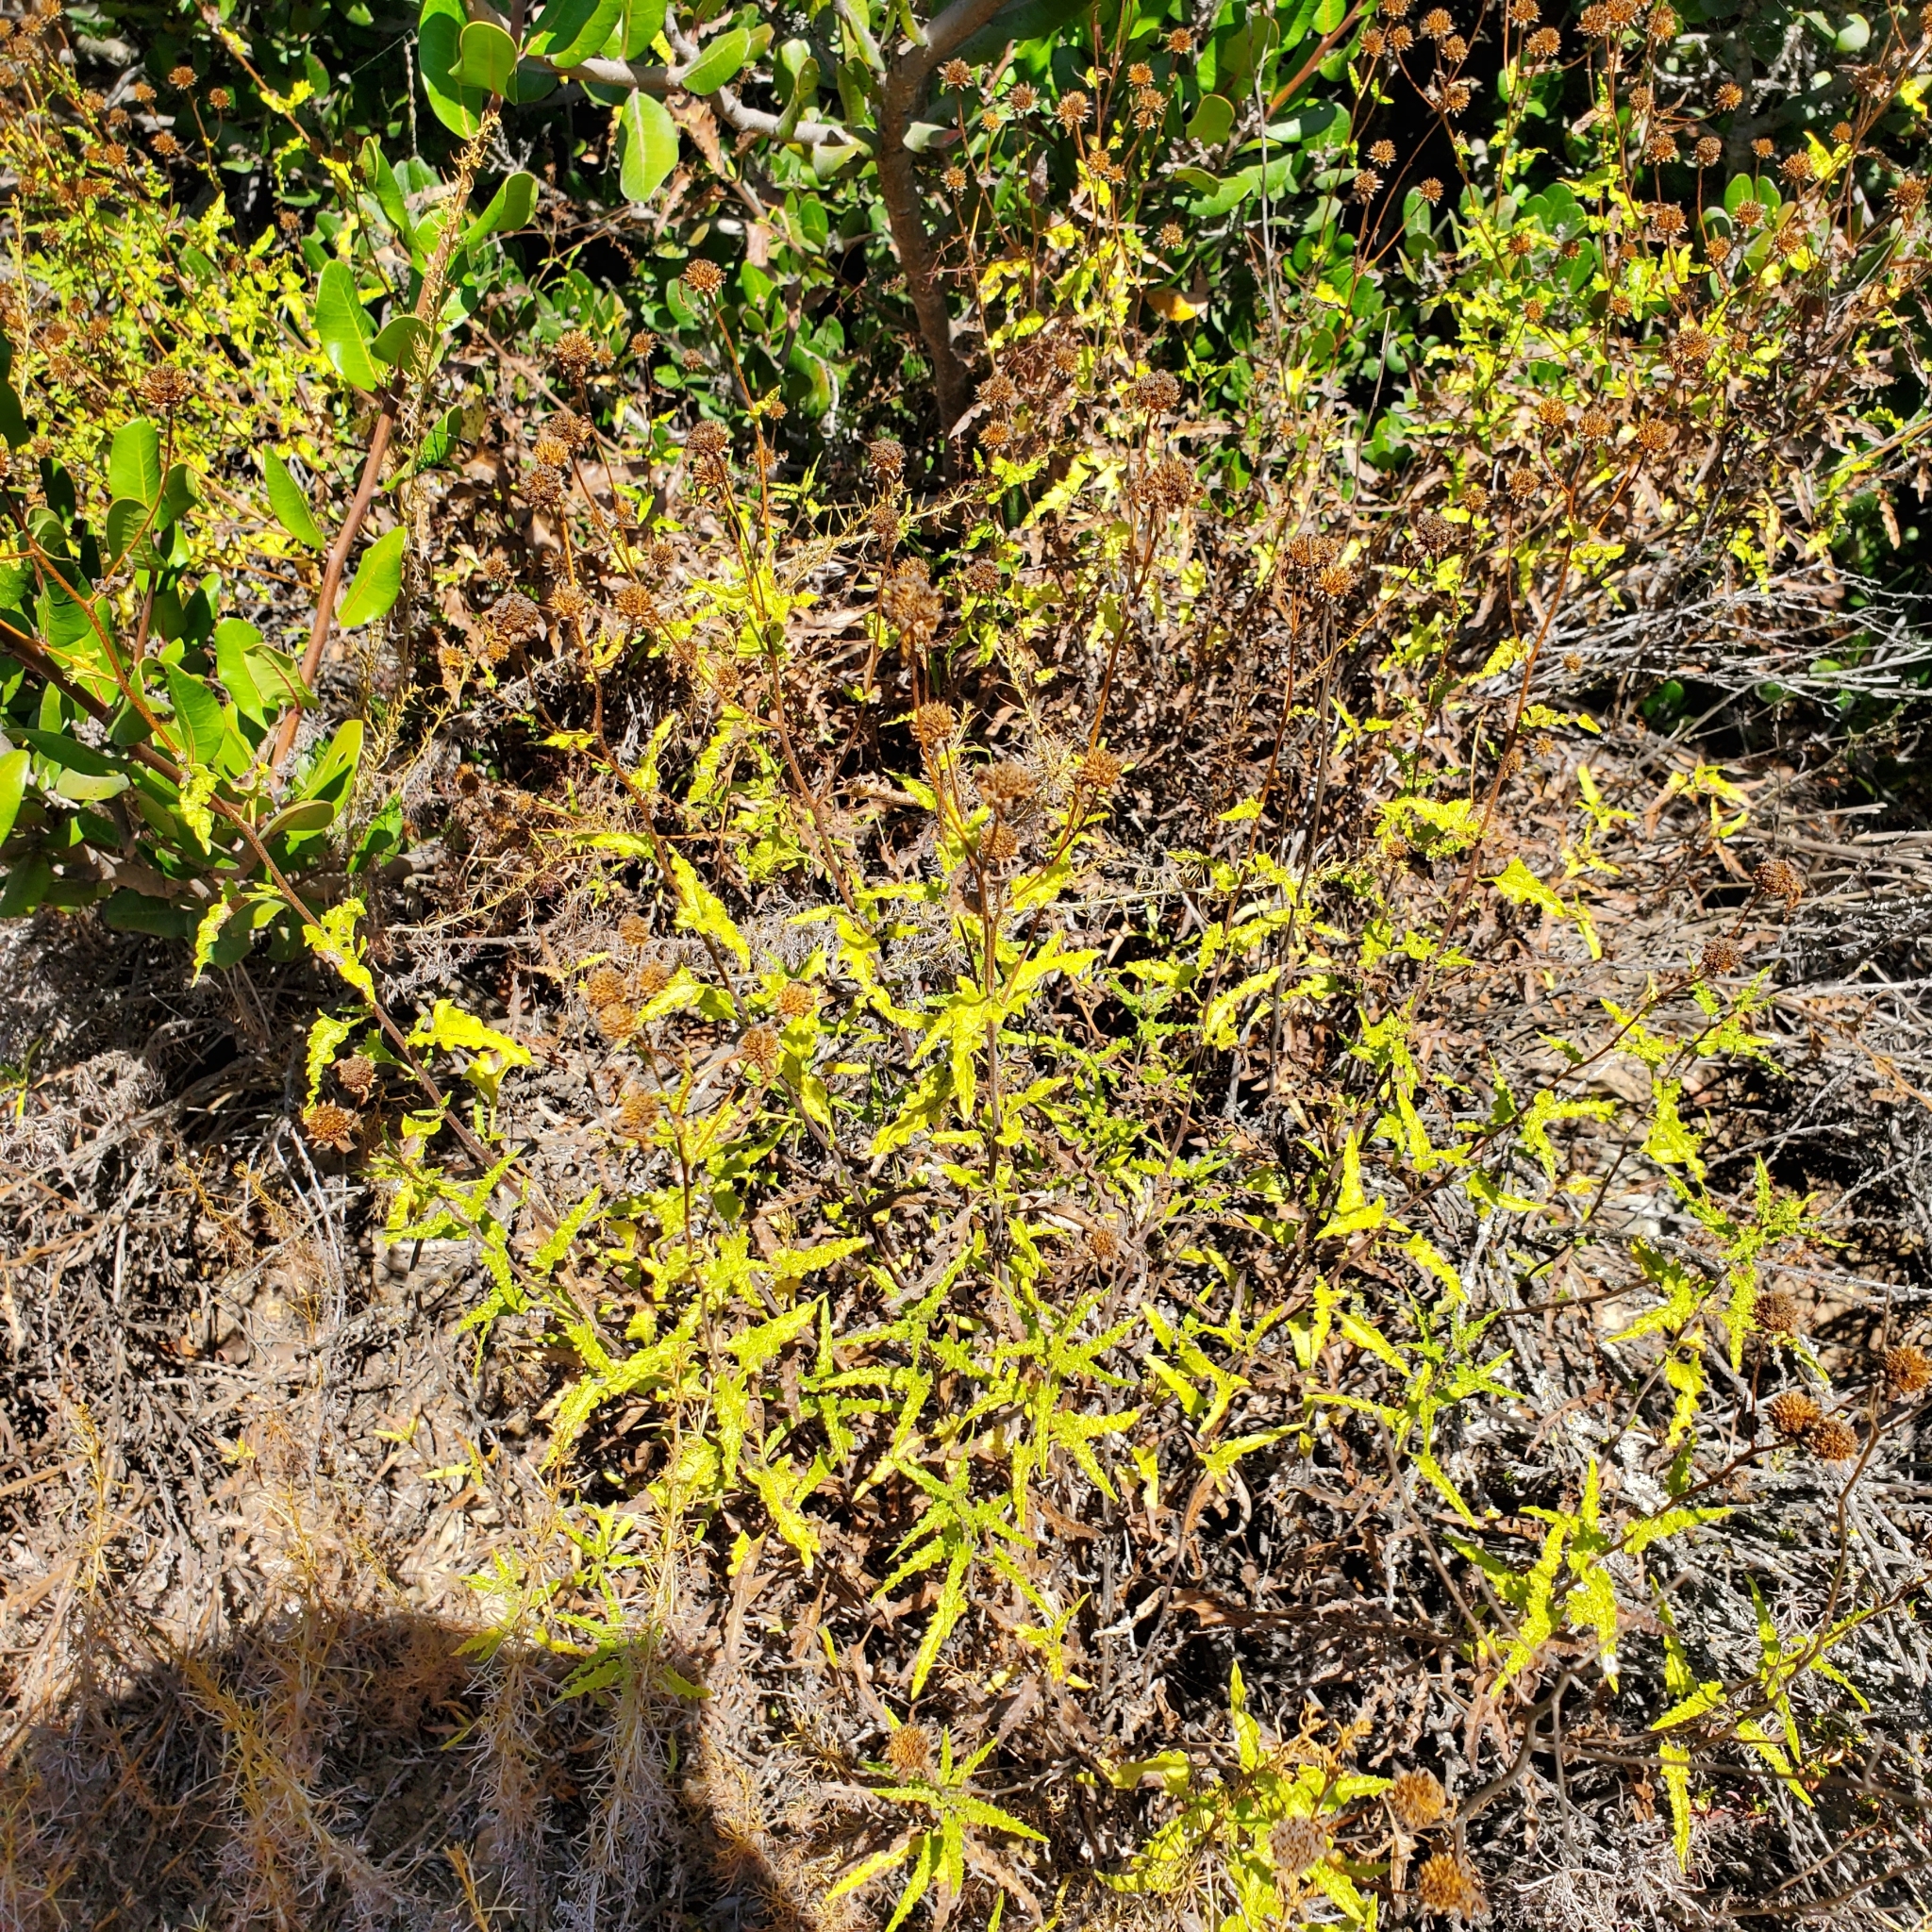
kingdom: Plantae
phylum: Tracheophyta
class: Magnoliopsida
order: Asterales
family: Asteraceae
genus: Bahiopsis
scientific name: Bahiopsis laciniata
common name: San diego county viguiera
